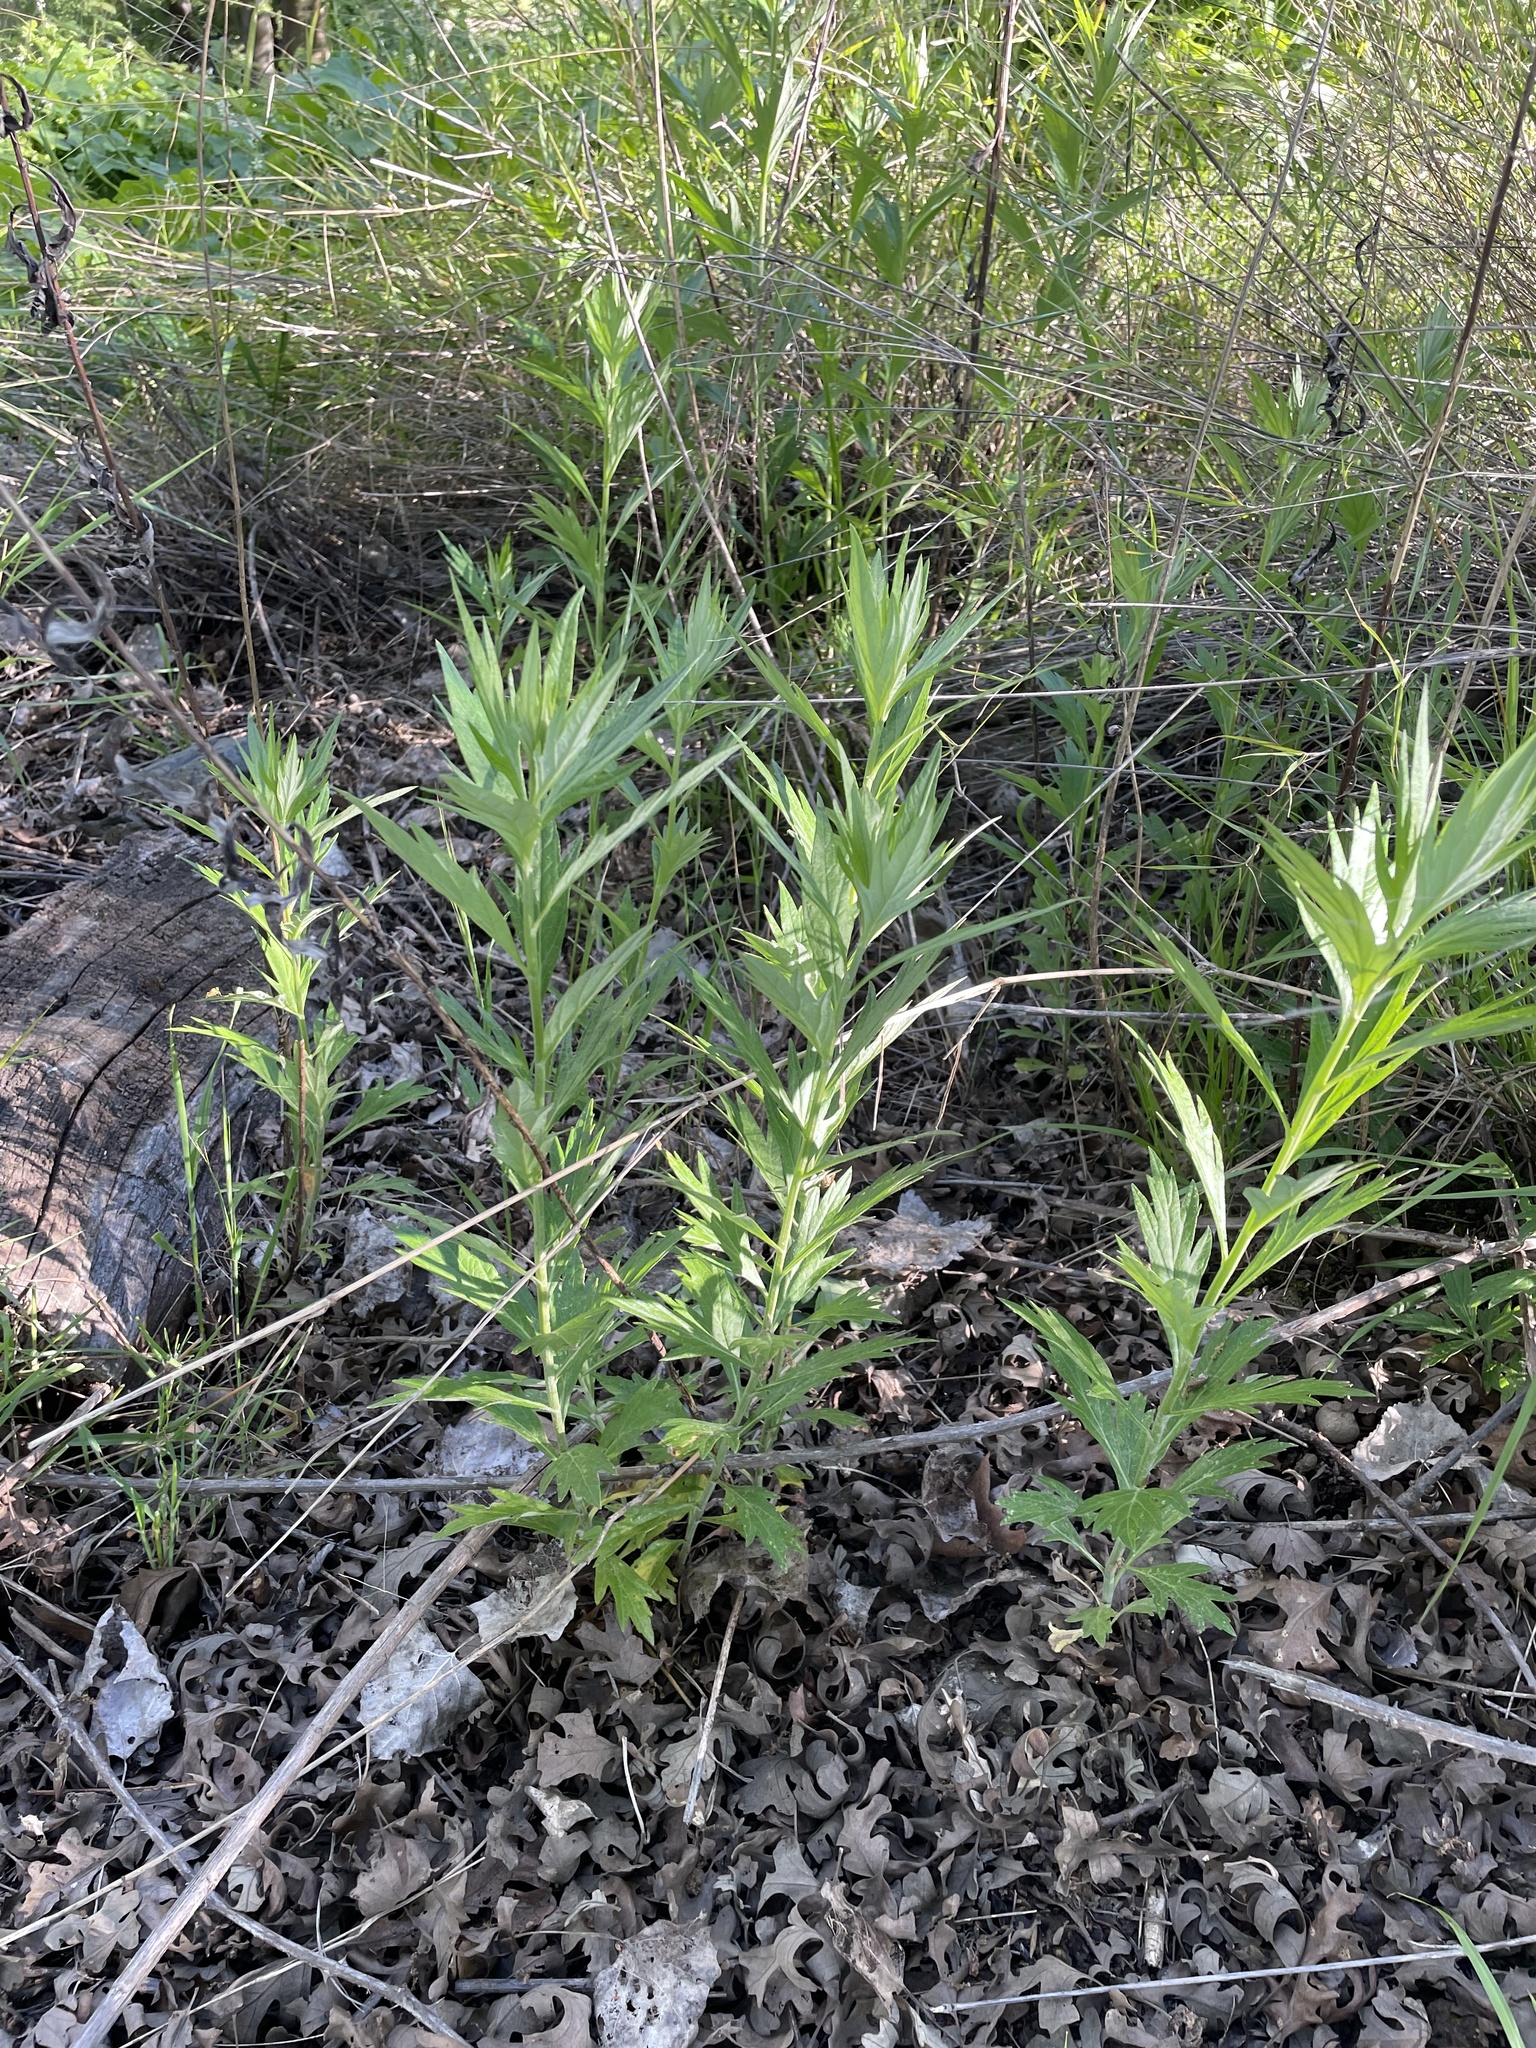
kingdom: Plantae
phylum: Tracheophyta
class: Magnoliopsida
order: Asterales
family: Asteraceae
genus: Artemisia
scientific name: Artemisia douglasiana
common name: Northwest mugwort
